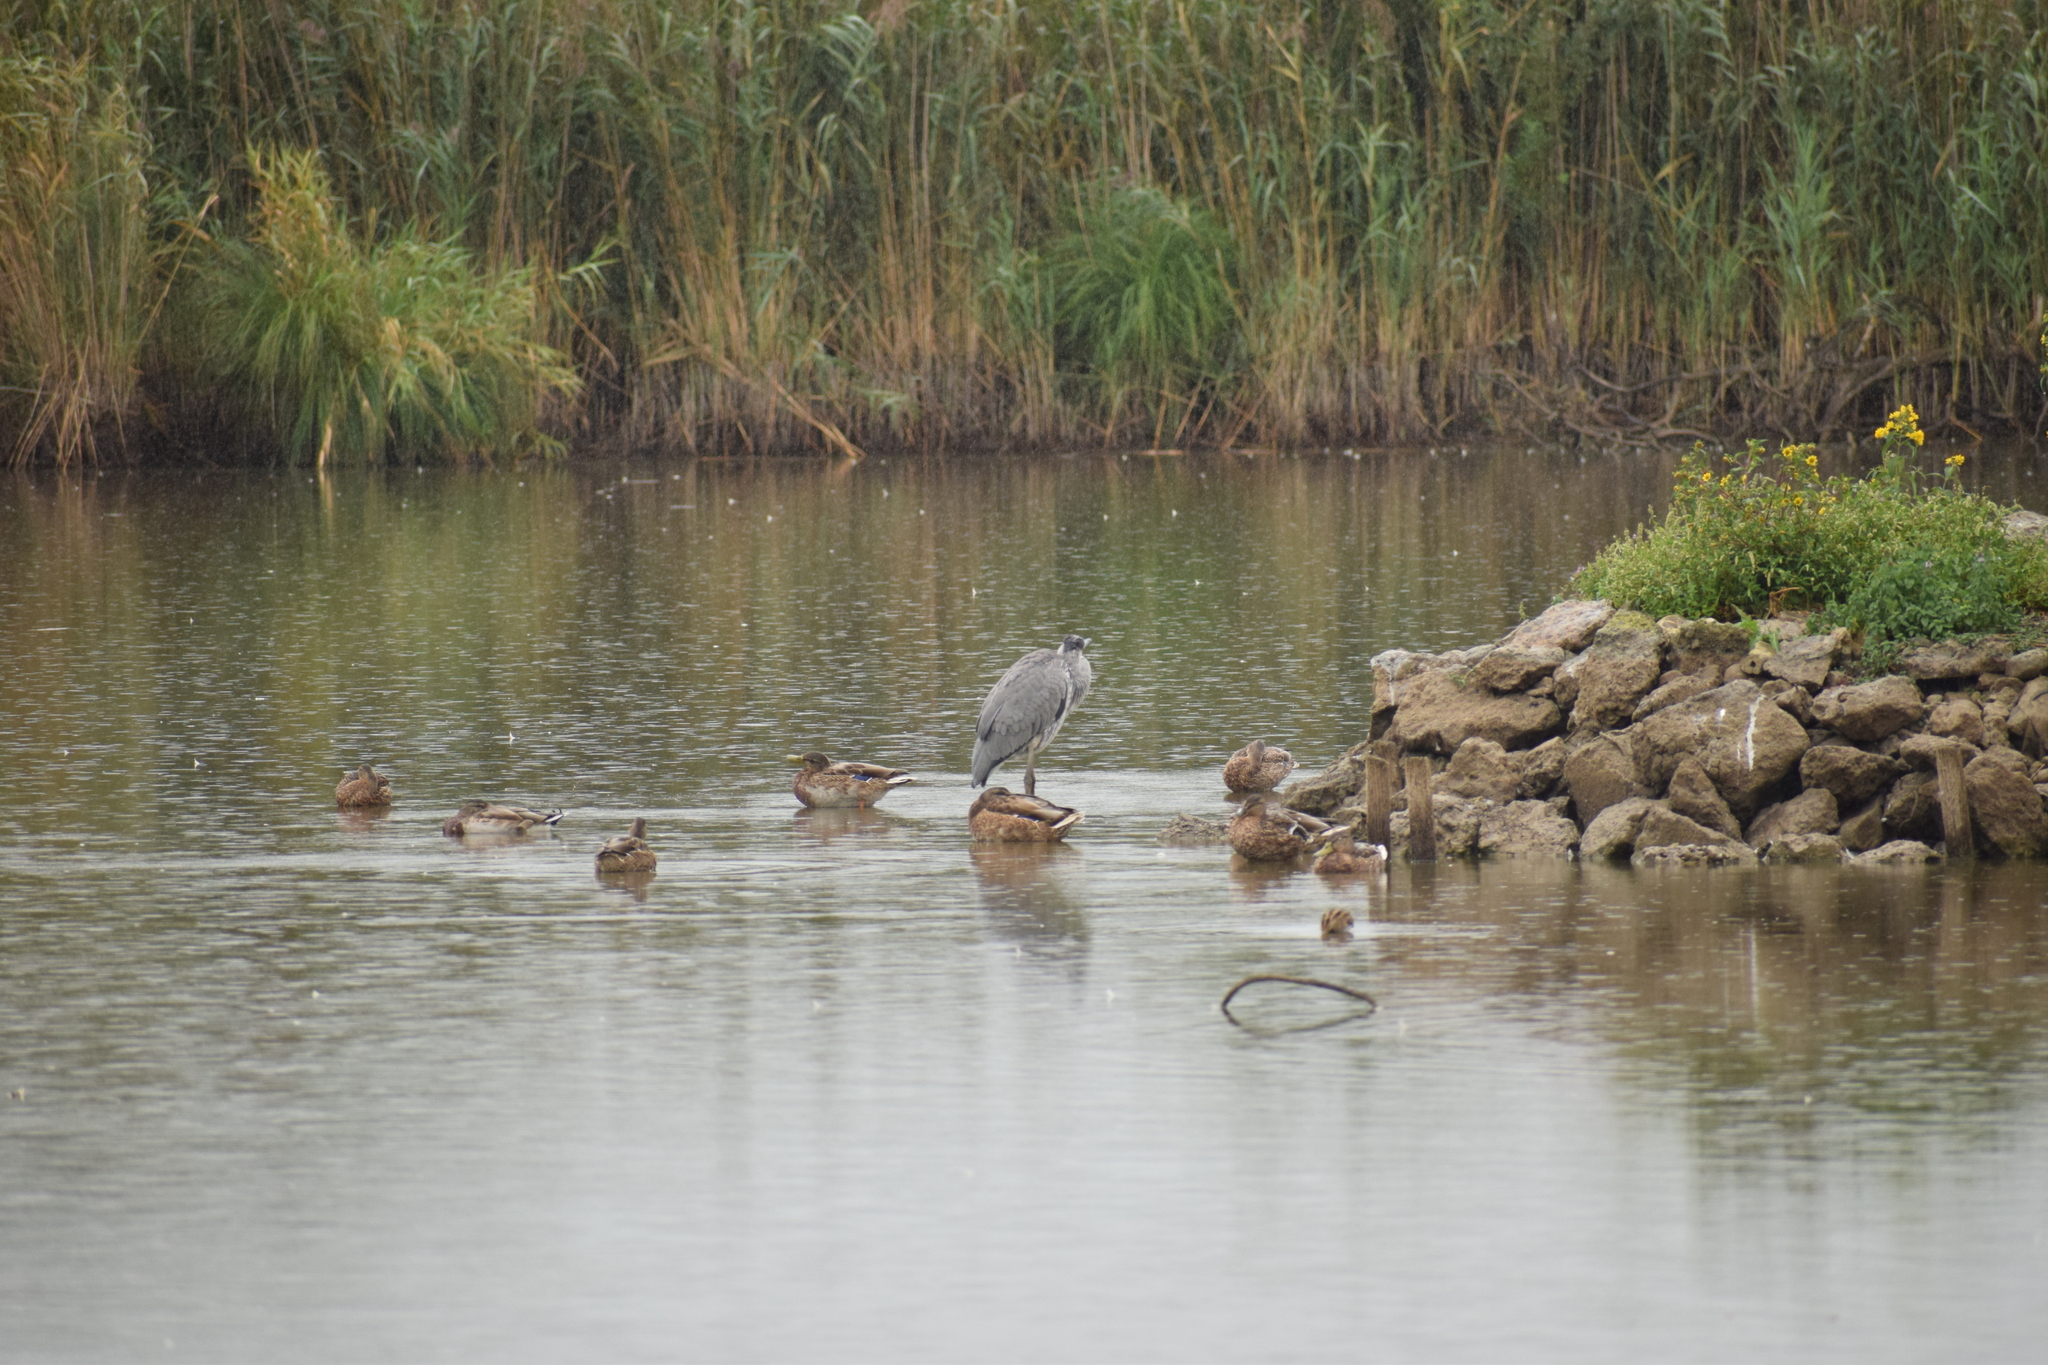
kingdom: Animalia
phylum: Chordata
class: Aves
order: Anseriformes
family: Anatidae
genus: Anas
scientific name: Anas platyrhynchos
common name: Mallard
